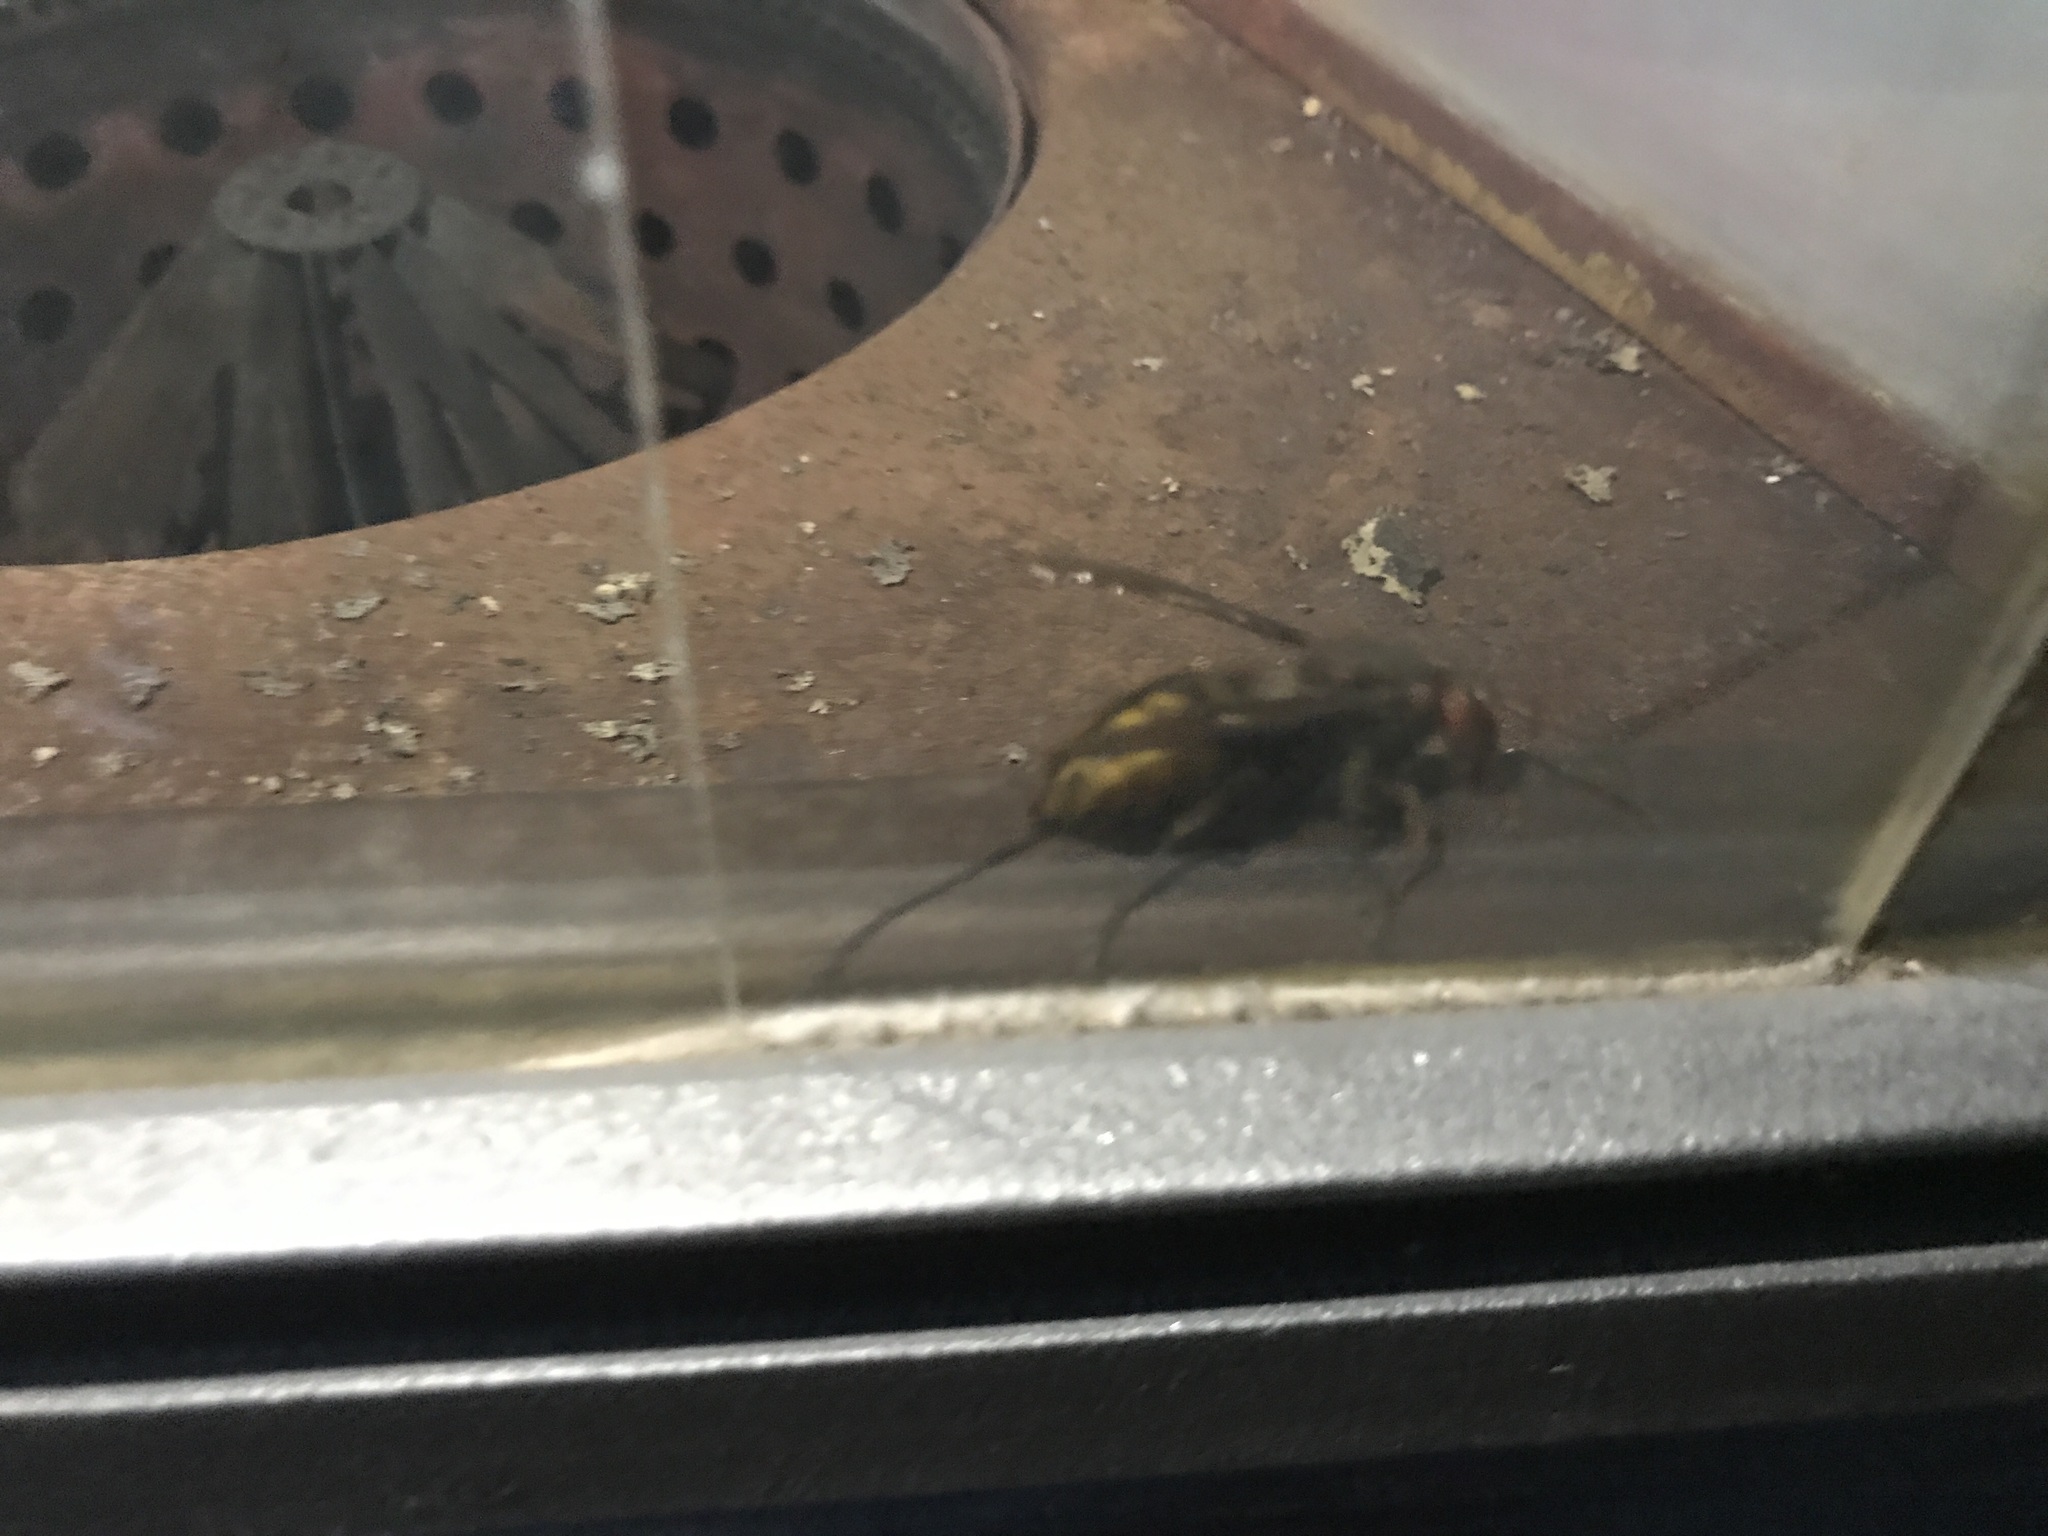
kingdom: Animalia
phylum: Arthropoda
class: Insecta
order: Hymenoptera
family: Vespidae
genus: Vespa
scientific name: Vespa crabro
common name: Hornet
